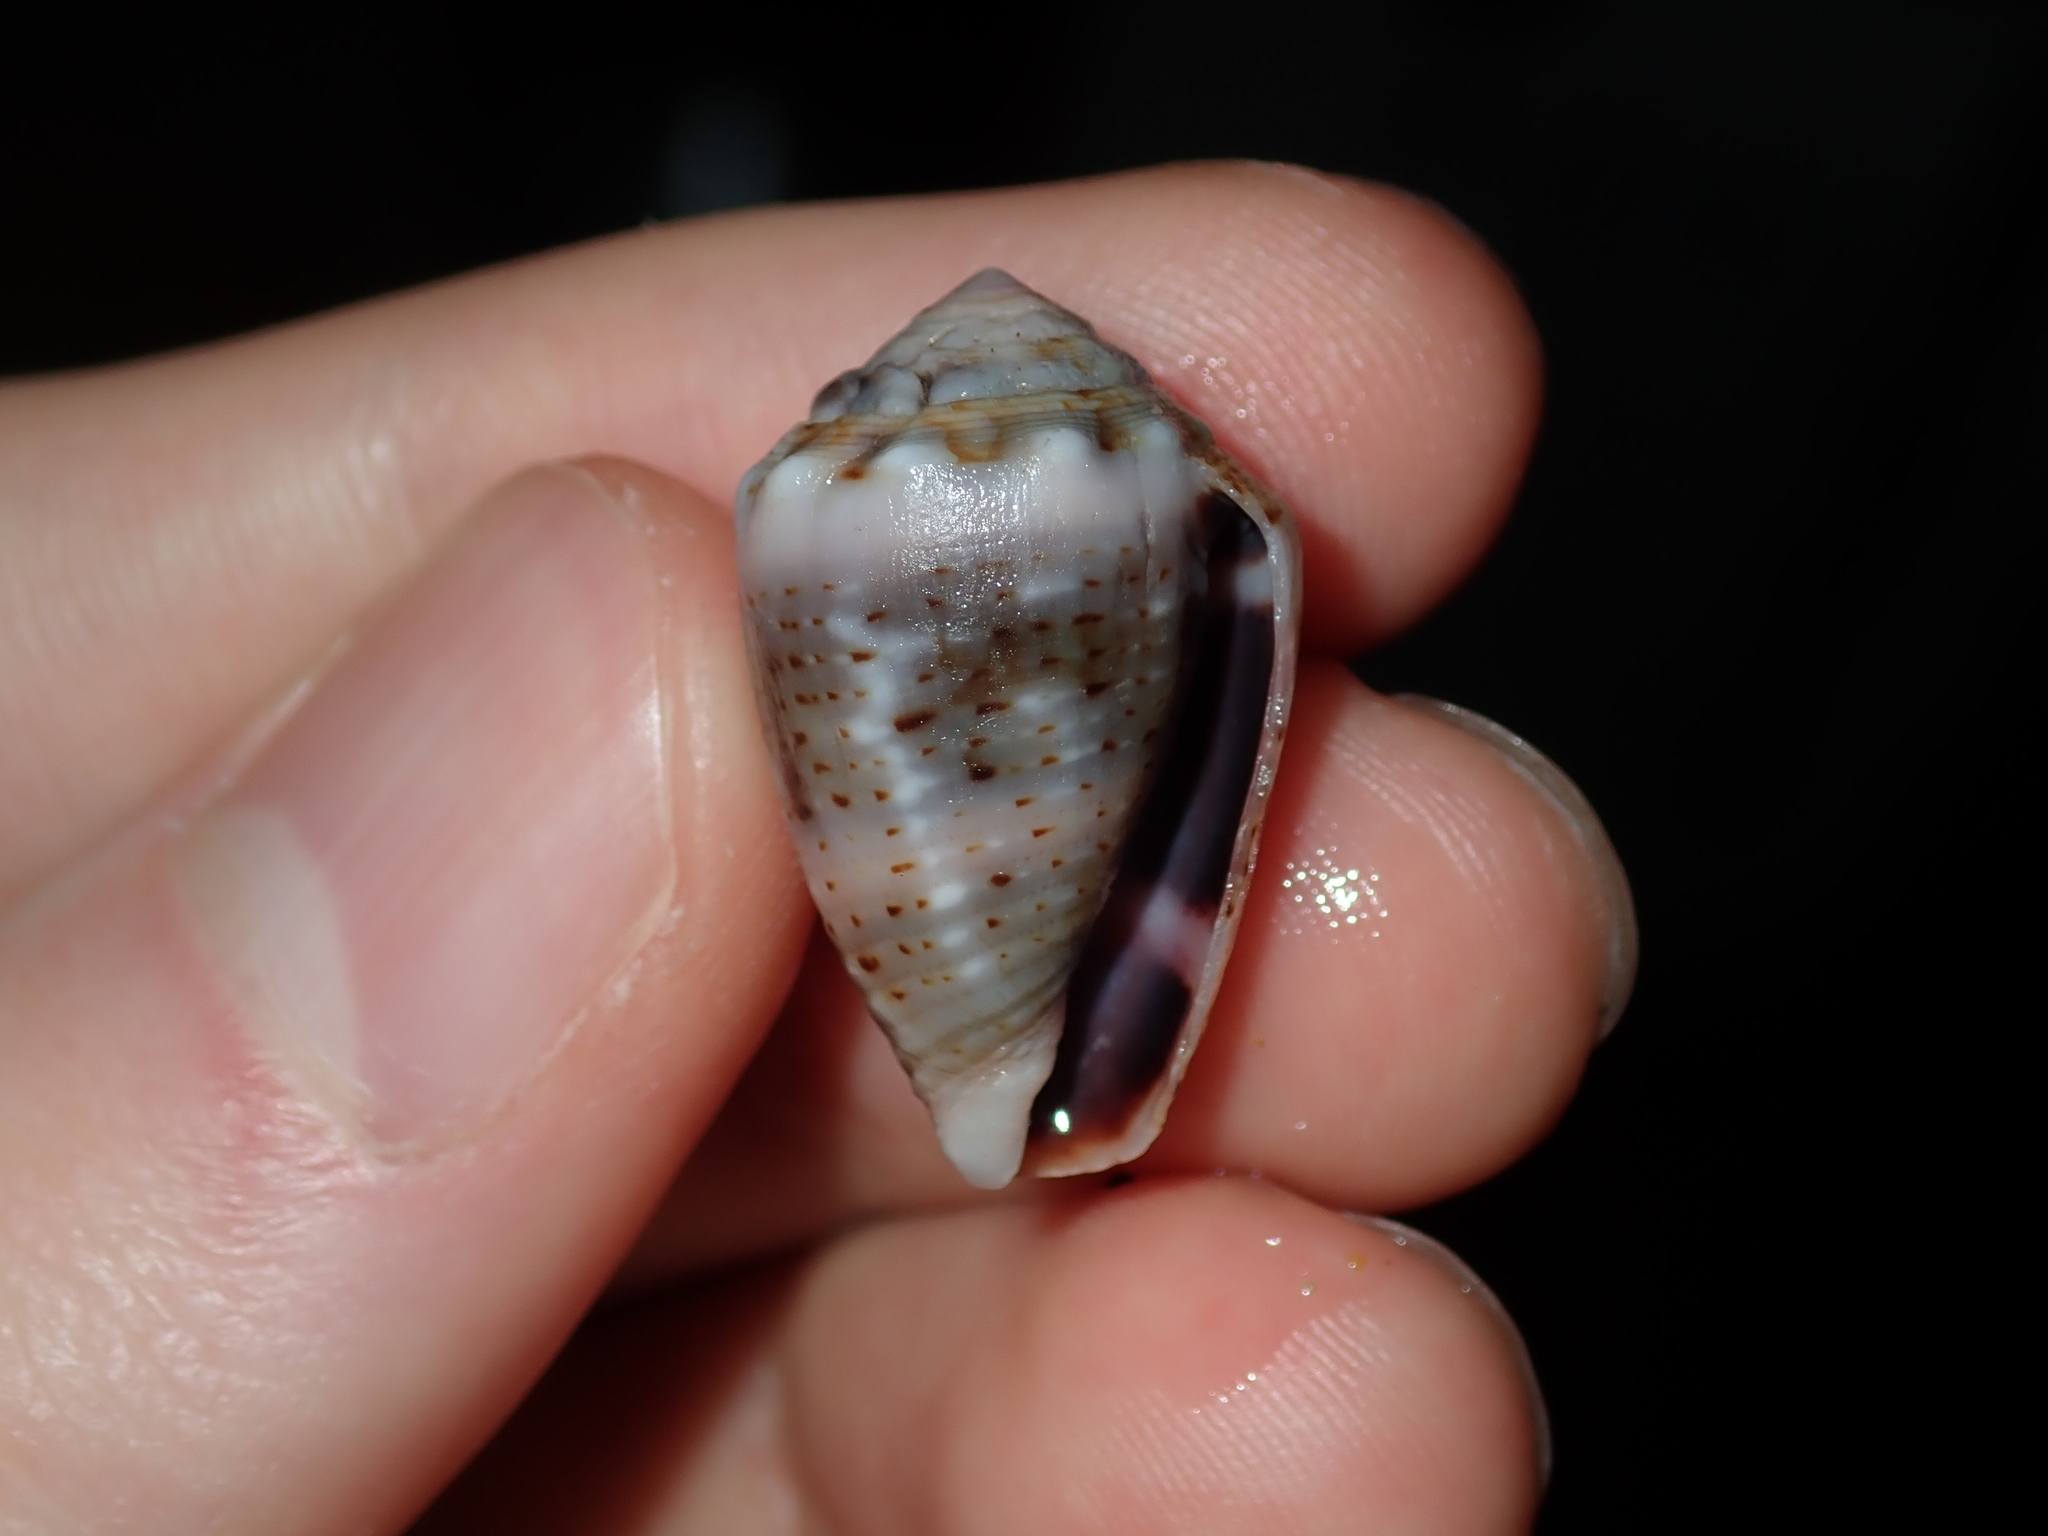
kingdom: Animalia
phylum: Mollusca
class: Gastropoda
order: Neogastropoda
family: Conidae
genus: Conus
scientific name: Conus coronatus
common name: Coronated cone
